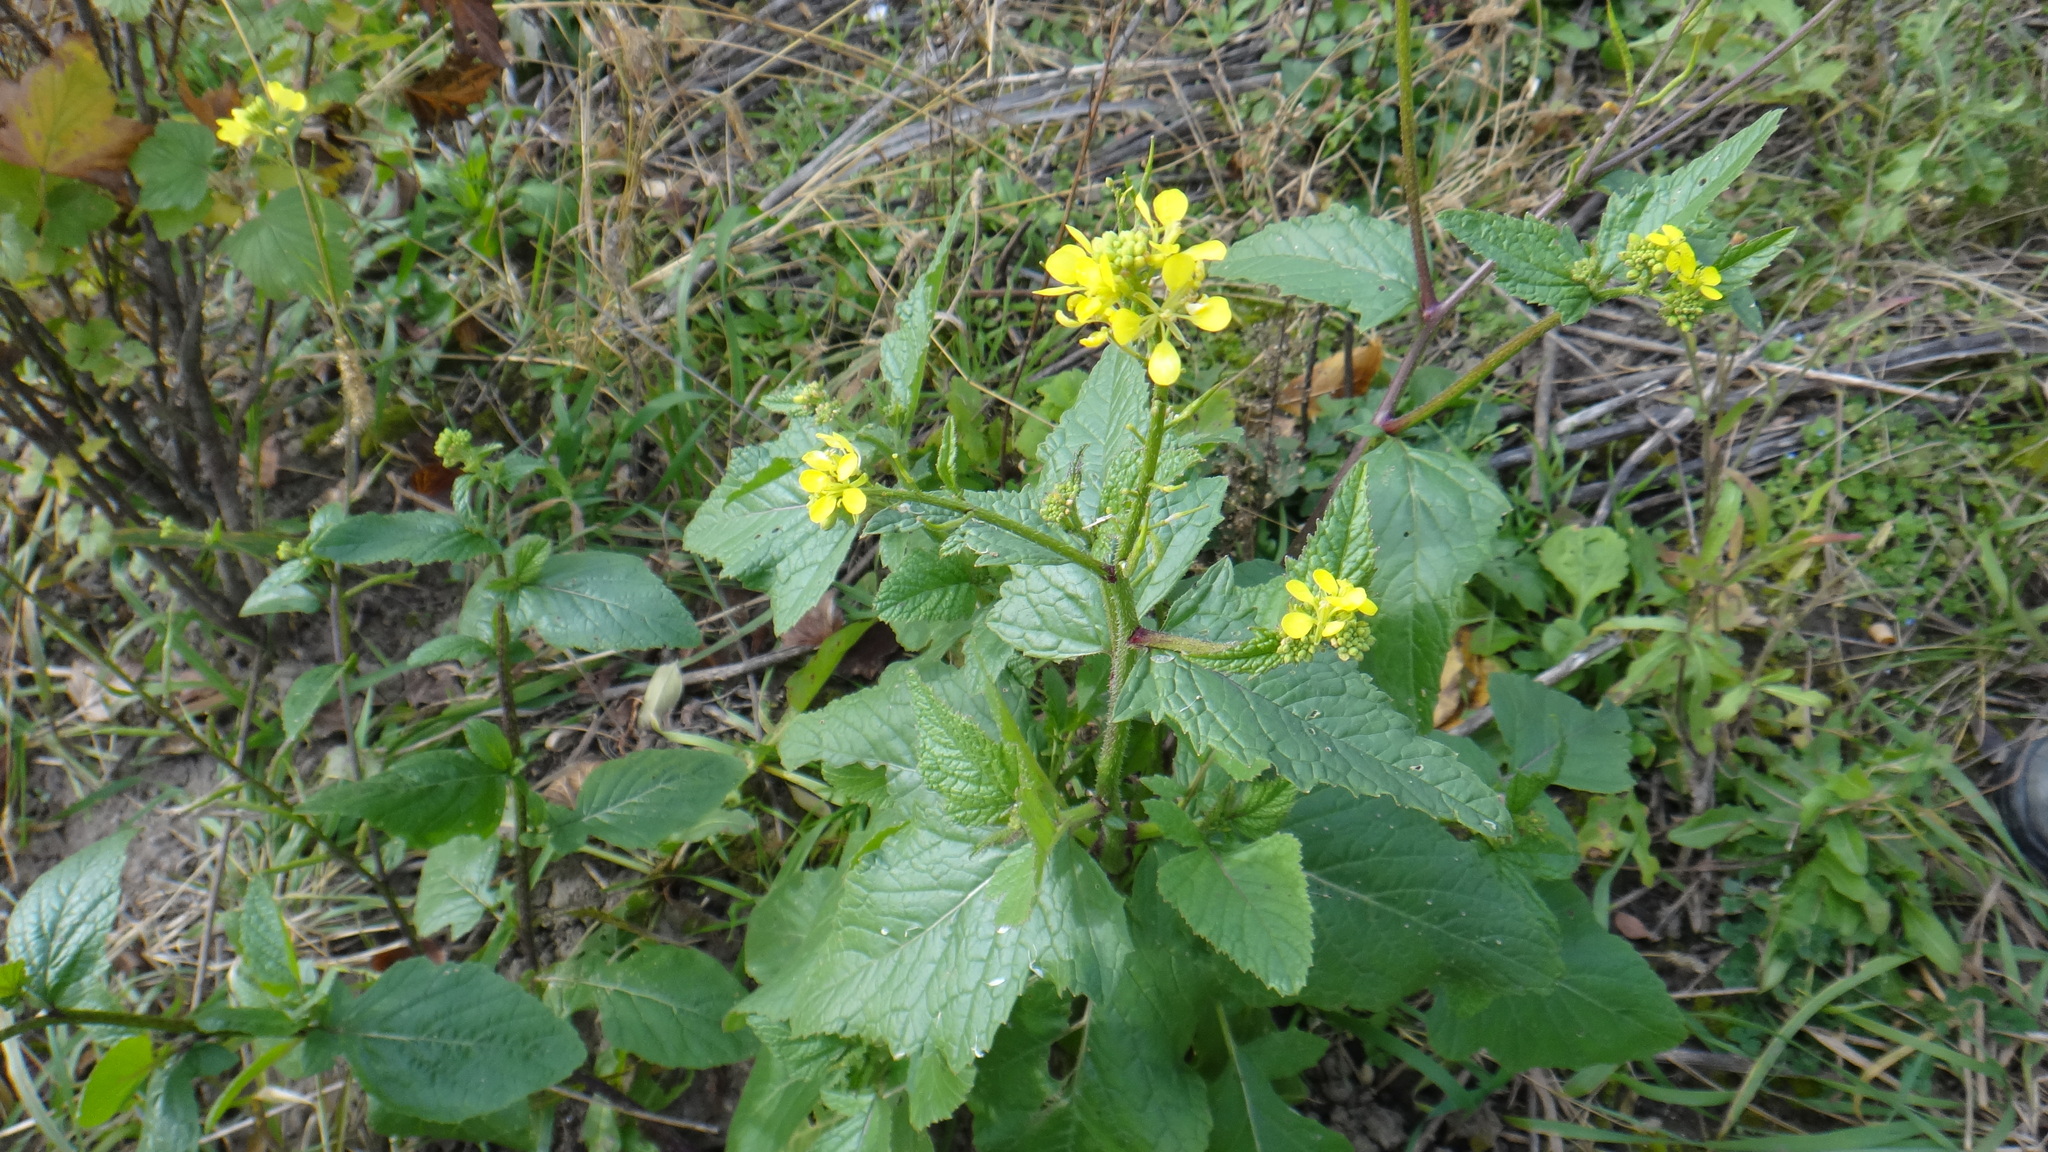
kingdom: Plantae
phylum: Tracheophyta
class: Magnoliopsida
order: Brassicales
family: Brassicaceae
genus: Sinapis
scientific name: Sinapis arvensis
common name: Charlock
